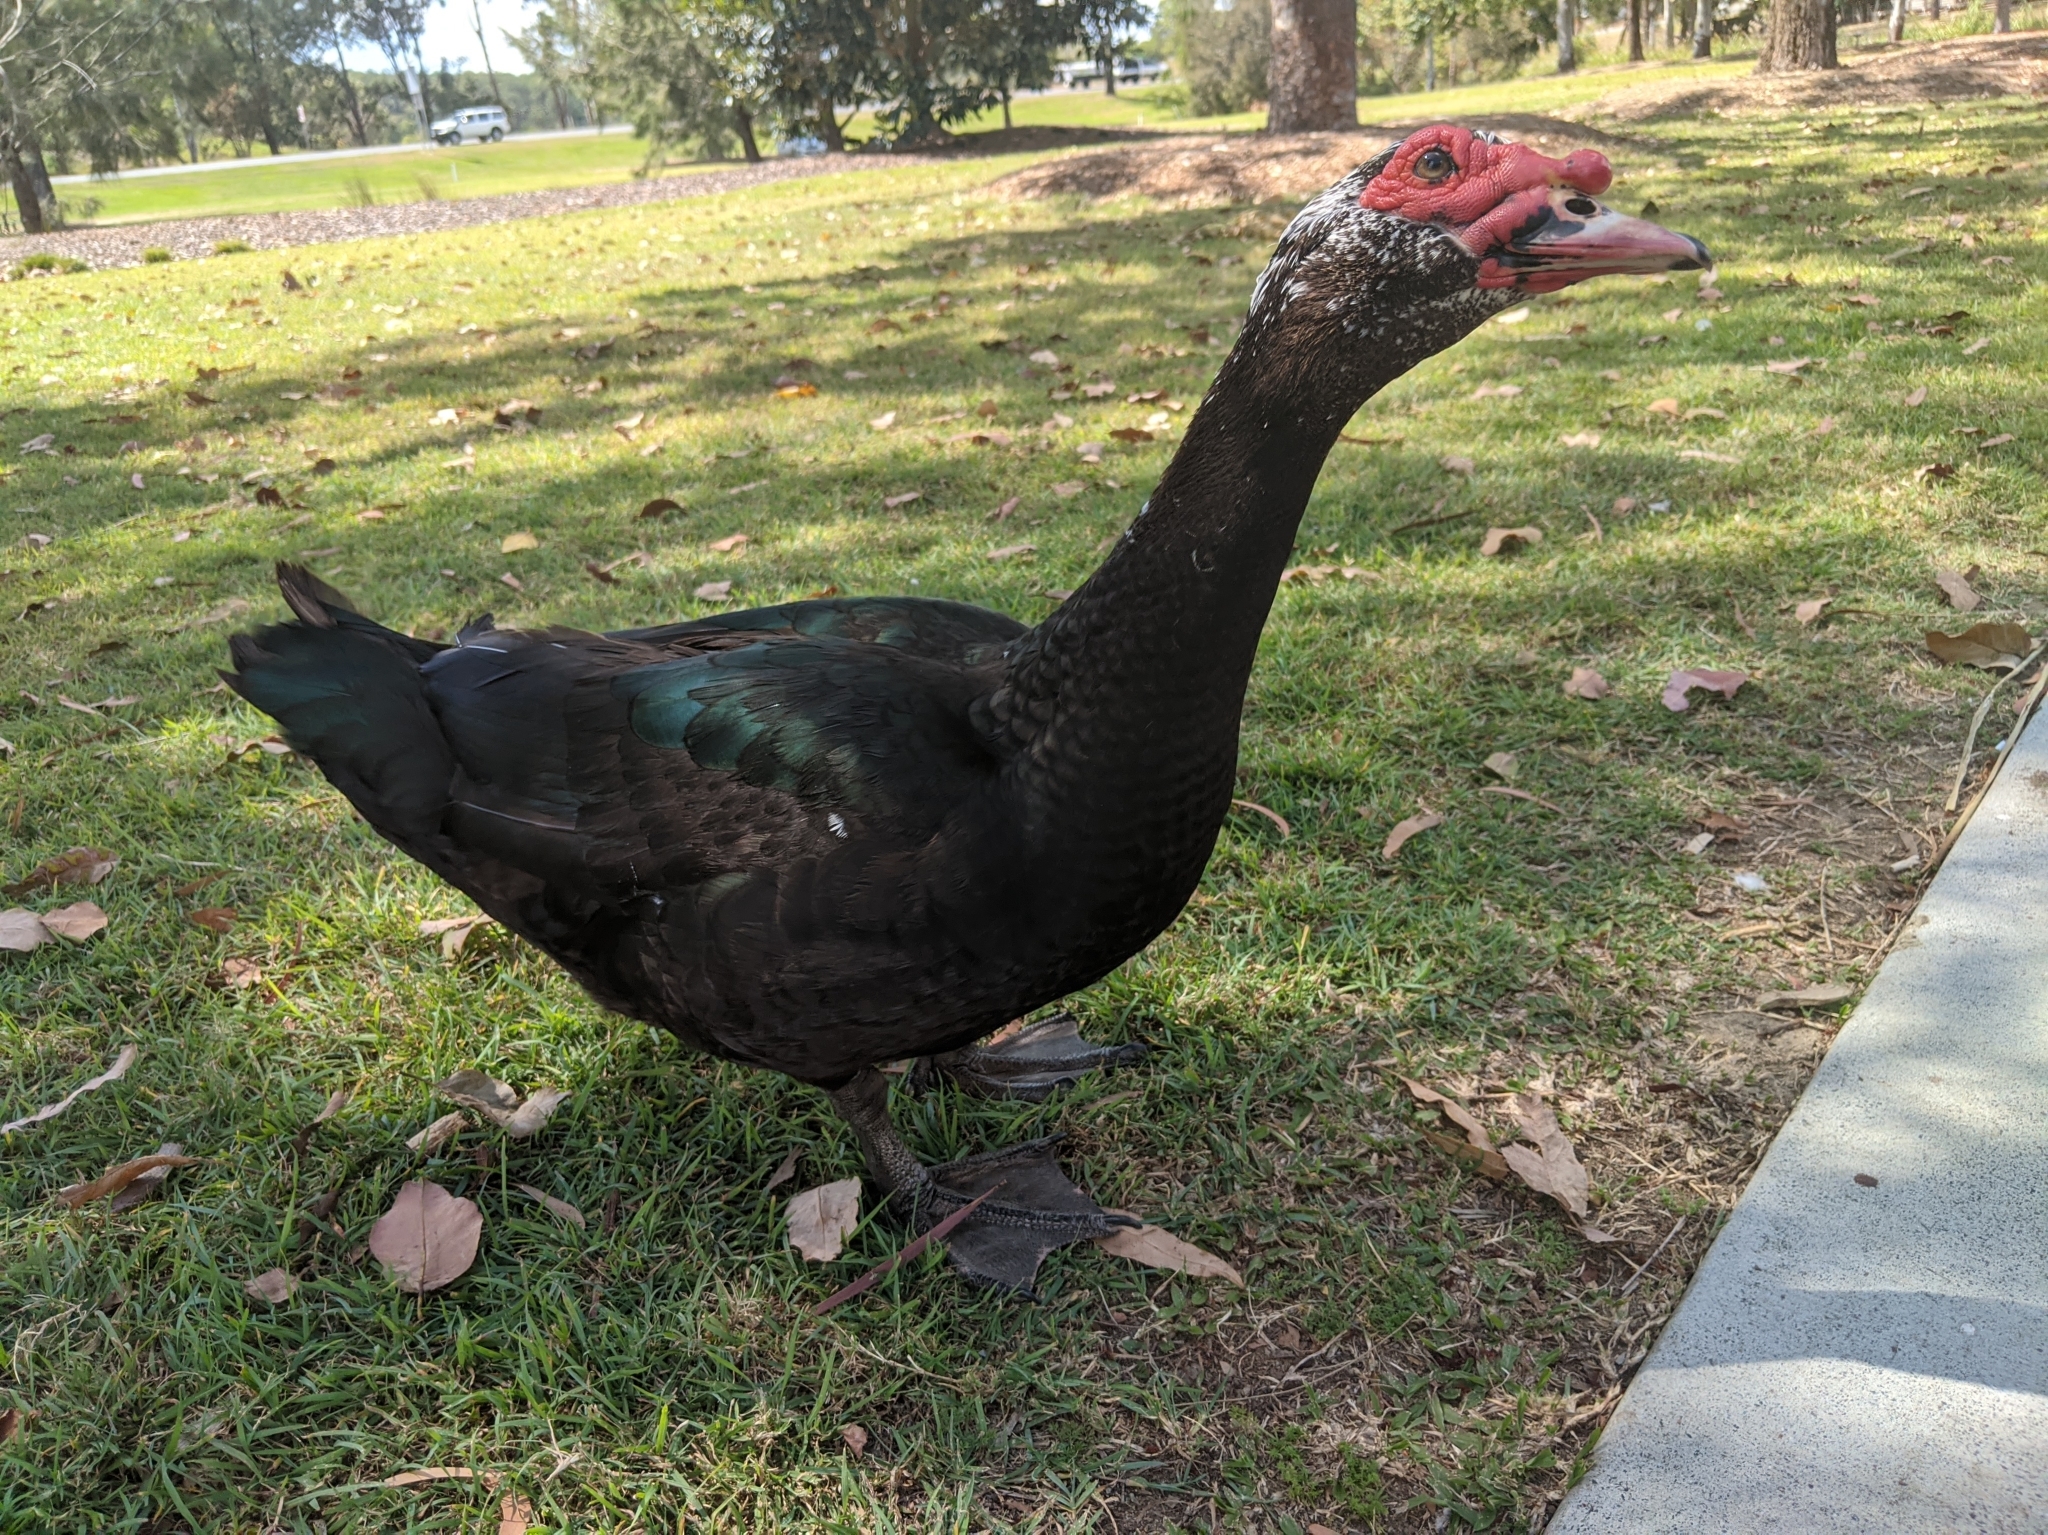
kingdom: Animalia
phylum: Chordata
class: Aves
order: Anseriformes
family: Anatidae
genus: Cairina
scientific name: Cairina moschata
